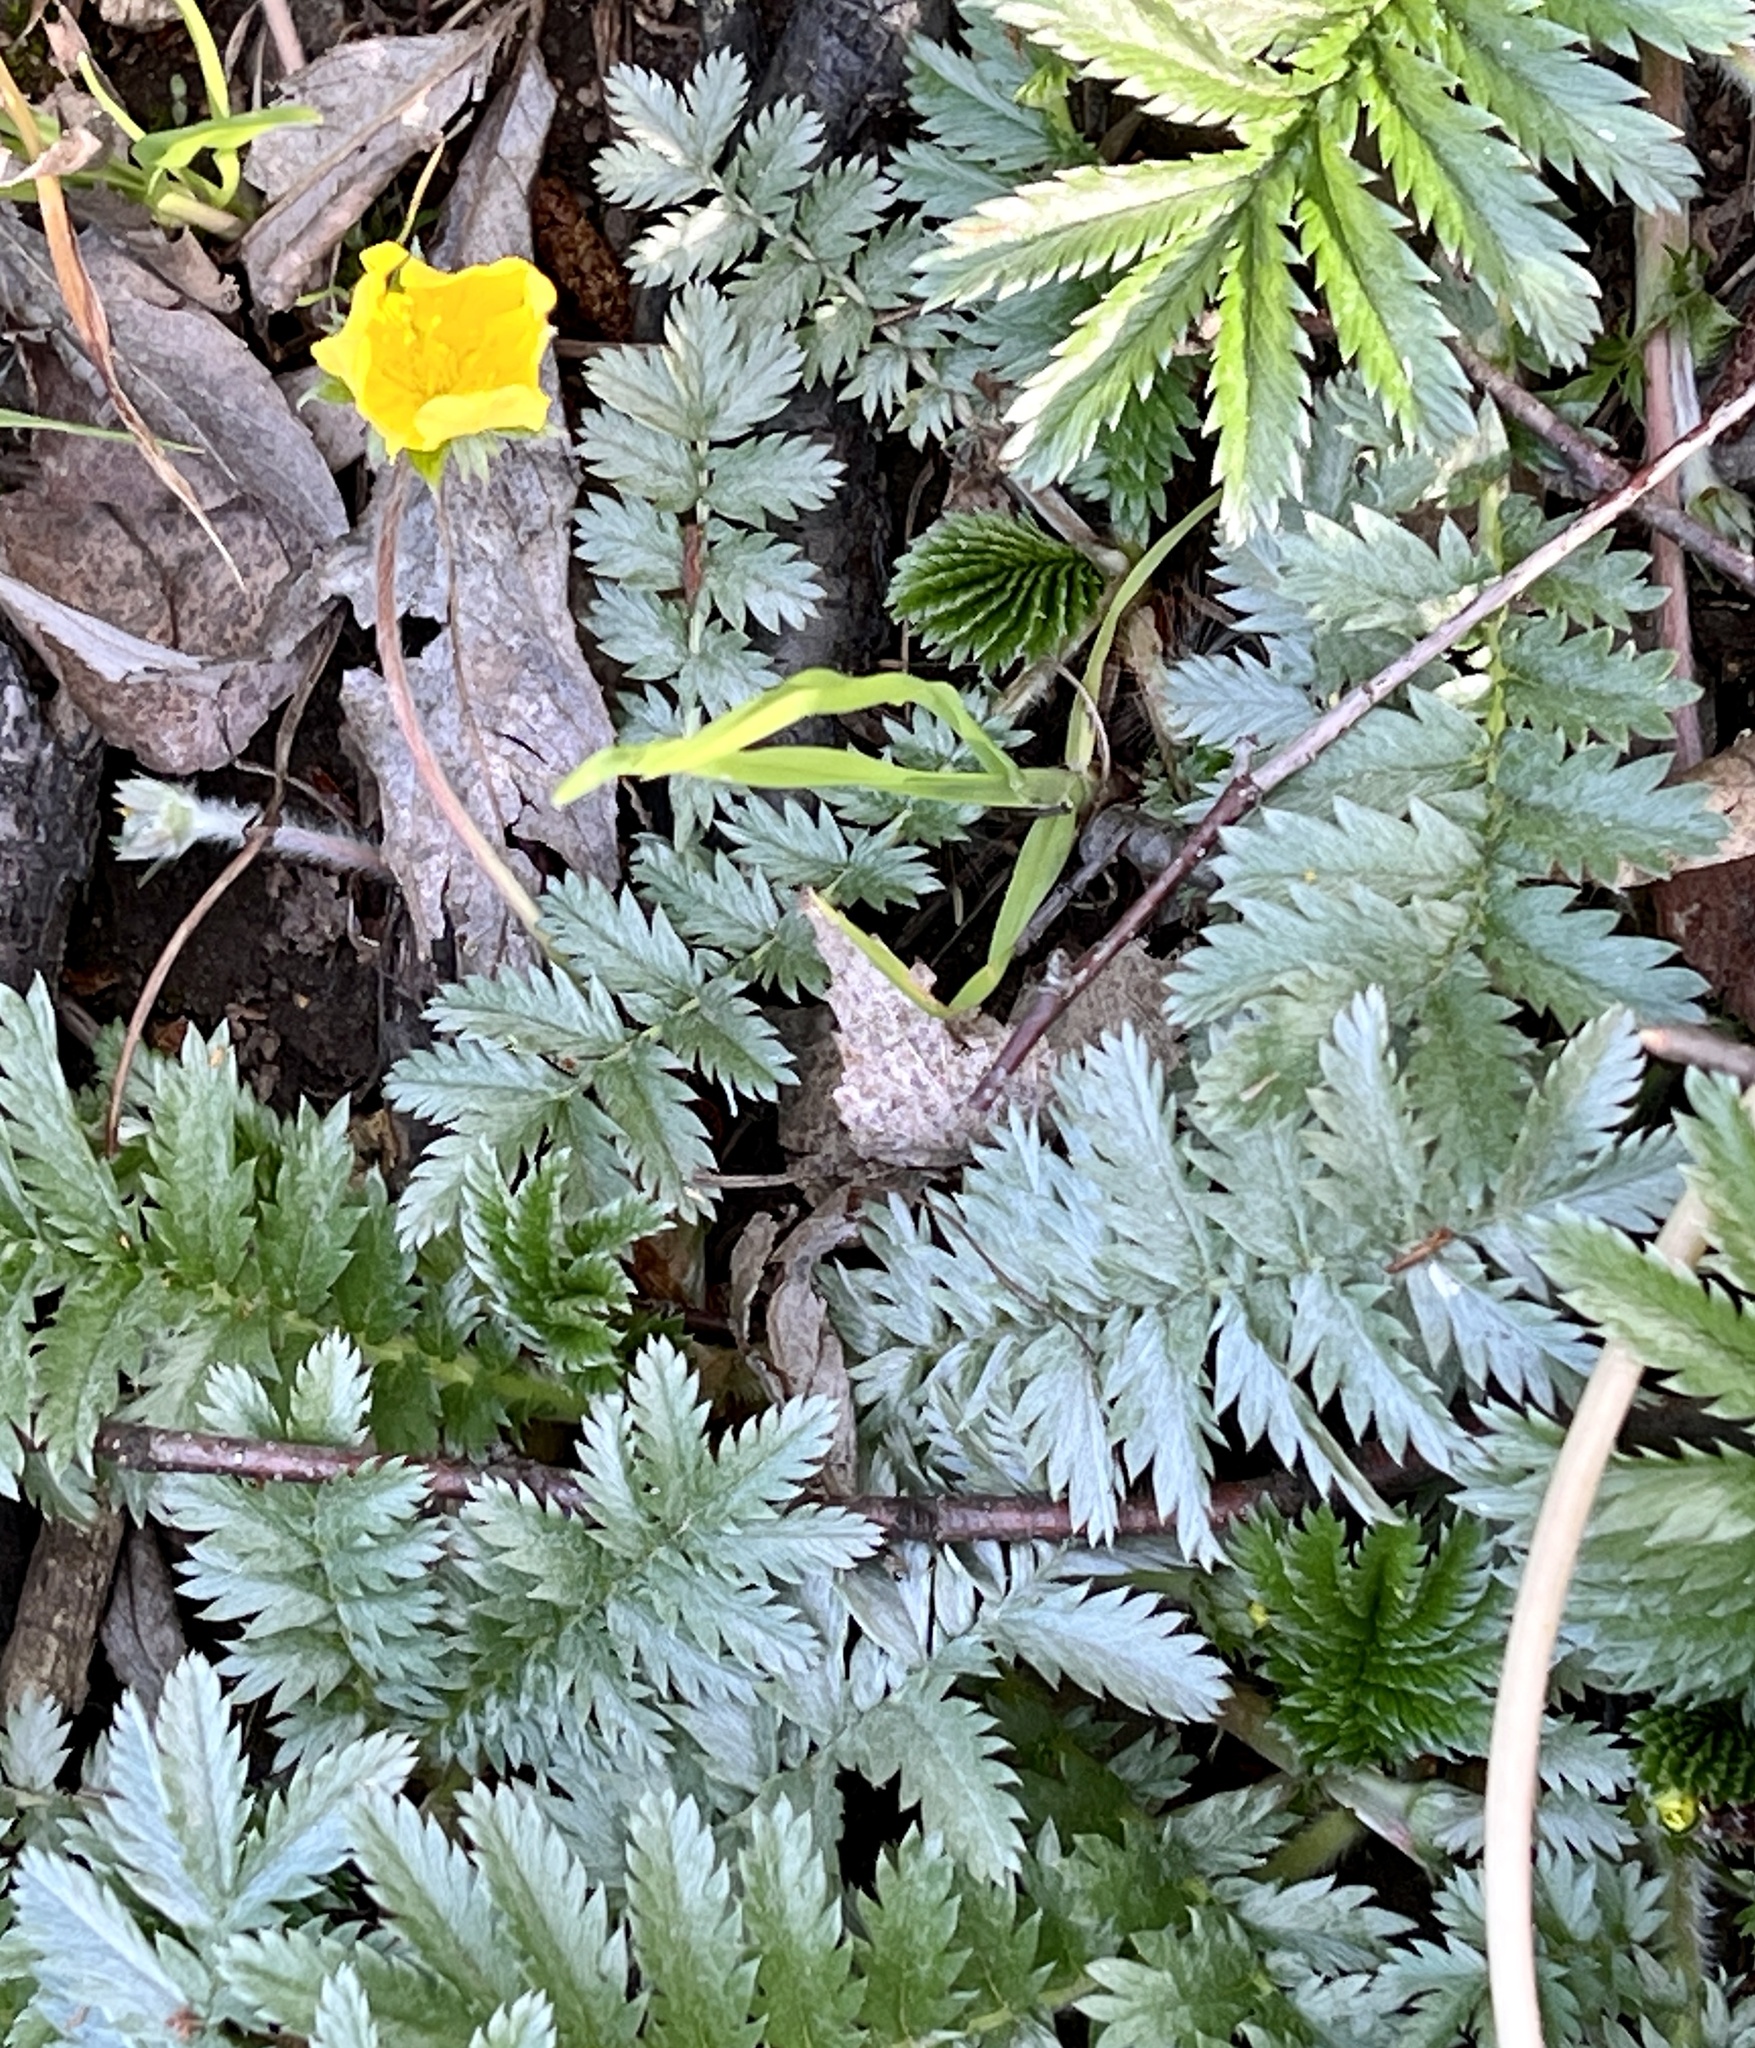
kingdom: Plantae
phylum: Tracheophyta
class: Magnoliopsida
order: Rosales
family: Rosaceae
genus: Argentina
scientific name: Argentina anserina
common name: Common silverweed
